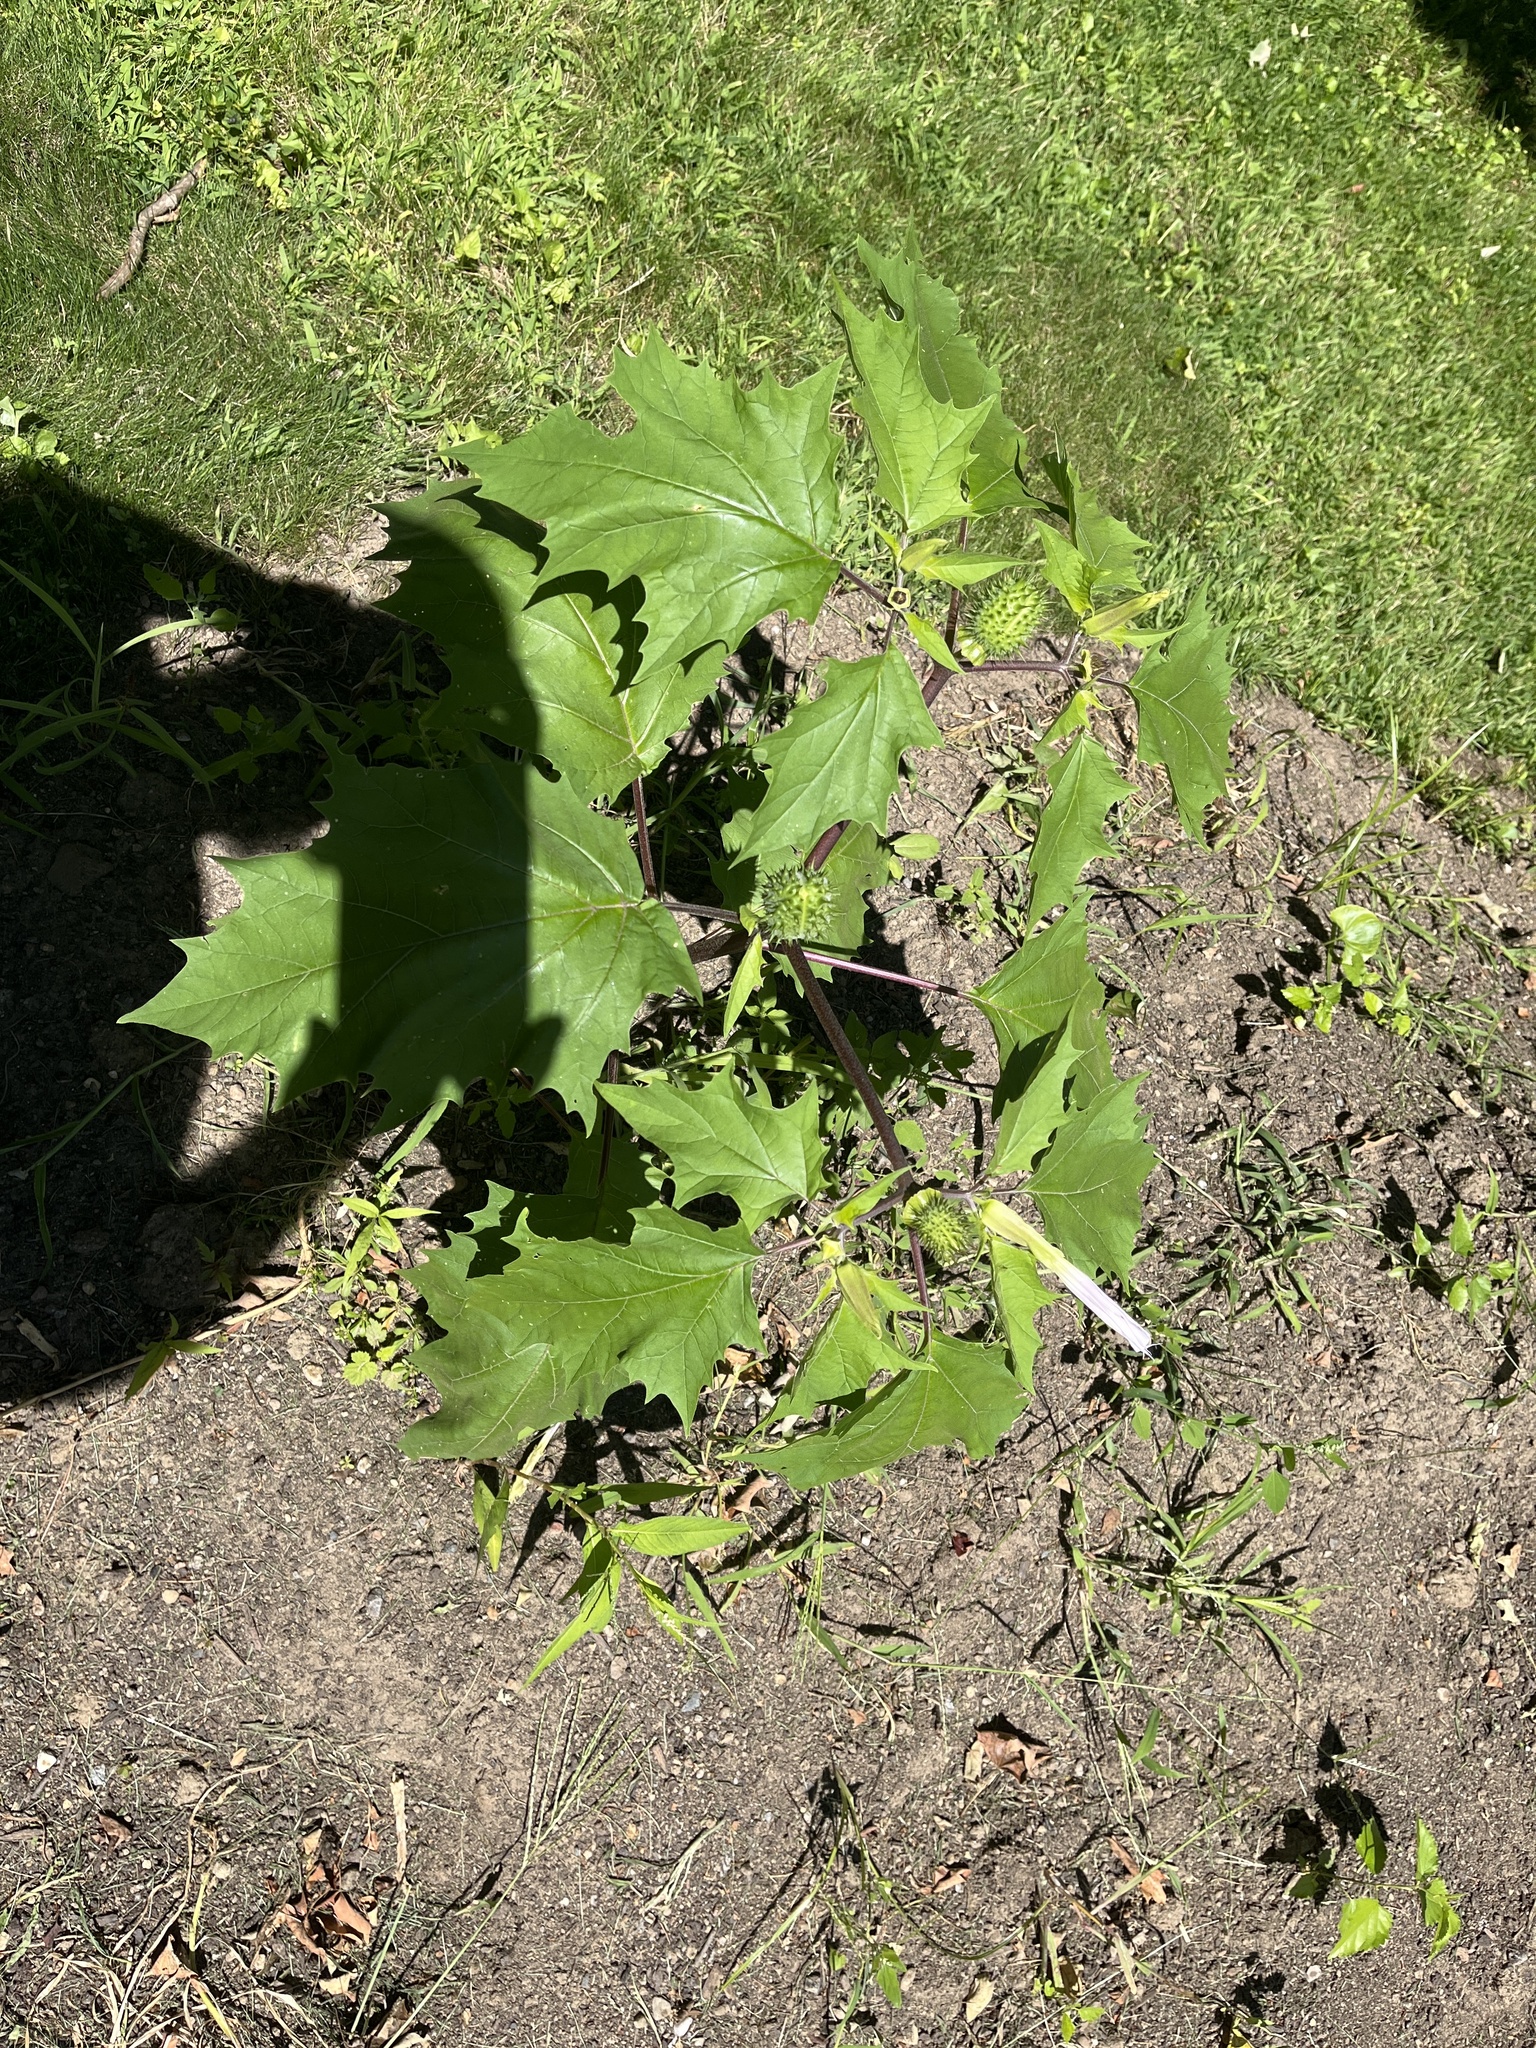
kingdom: Plantae
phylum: Tracheophyta
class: Magnoliopsida
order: Solanales
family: Solanaceae
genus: Datura
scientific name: Datura stramonium
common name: Thorn-apple
